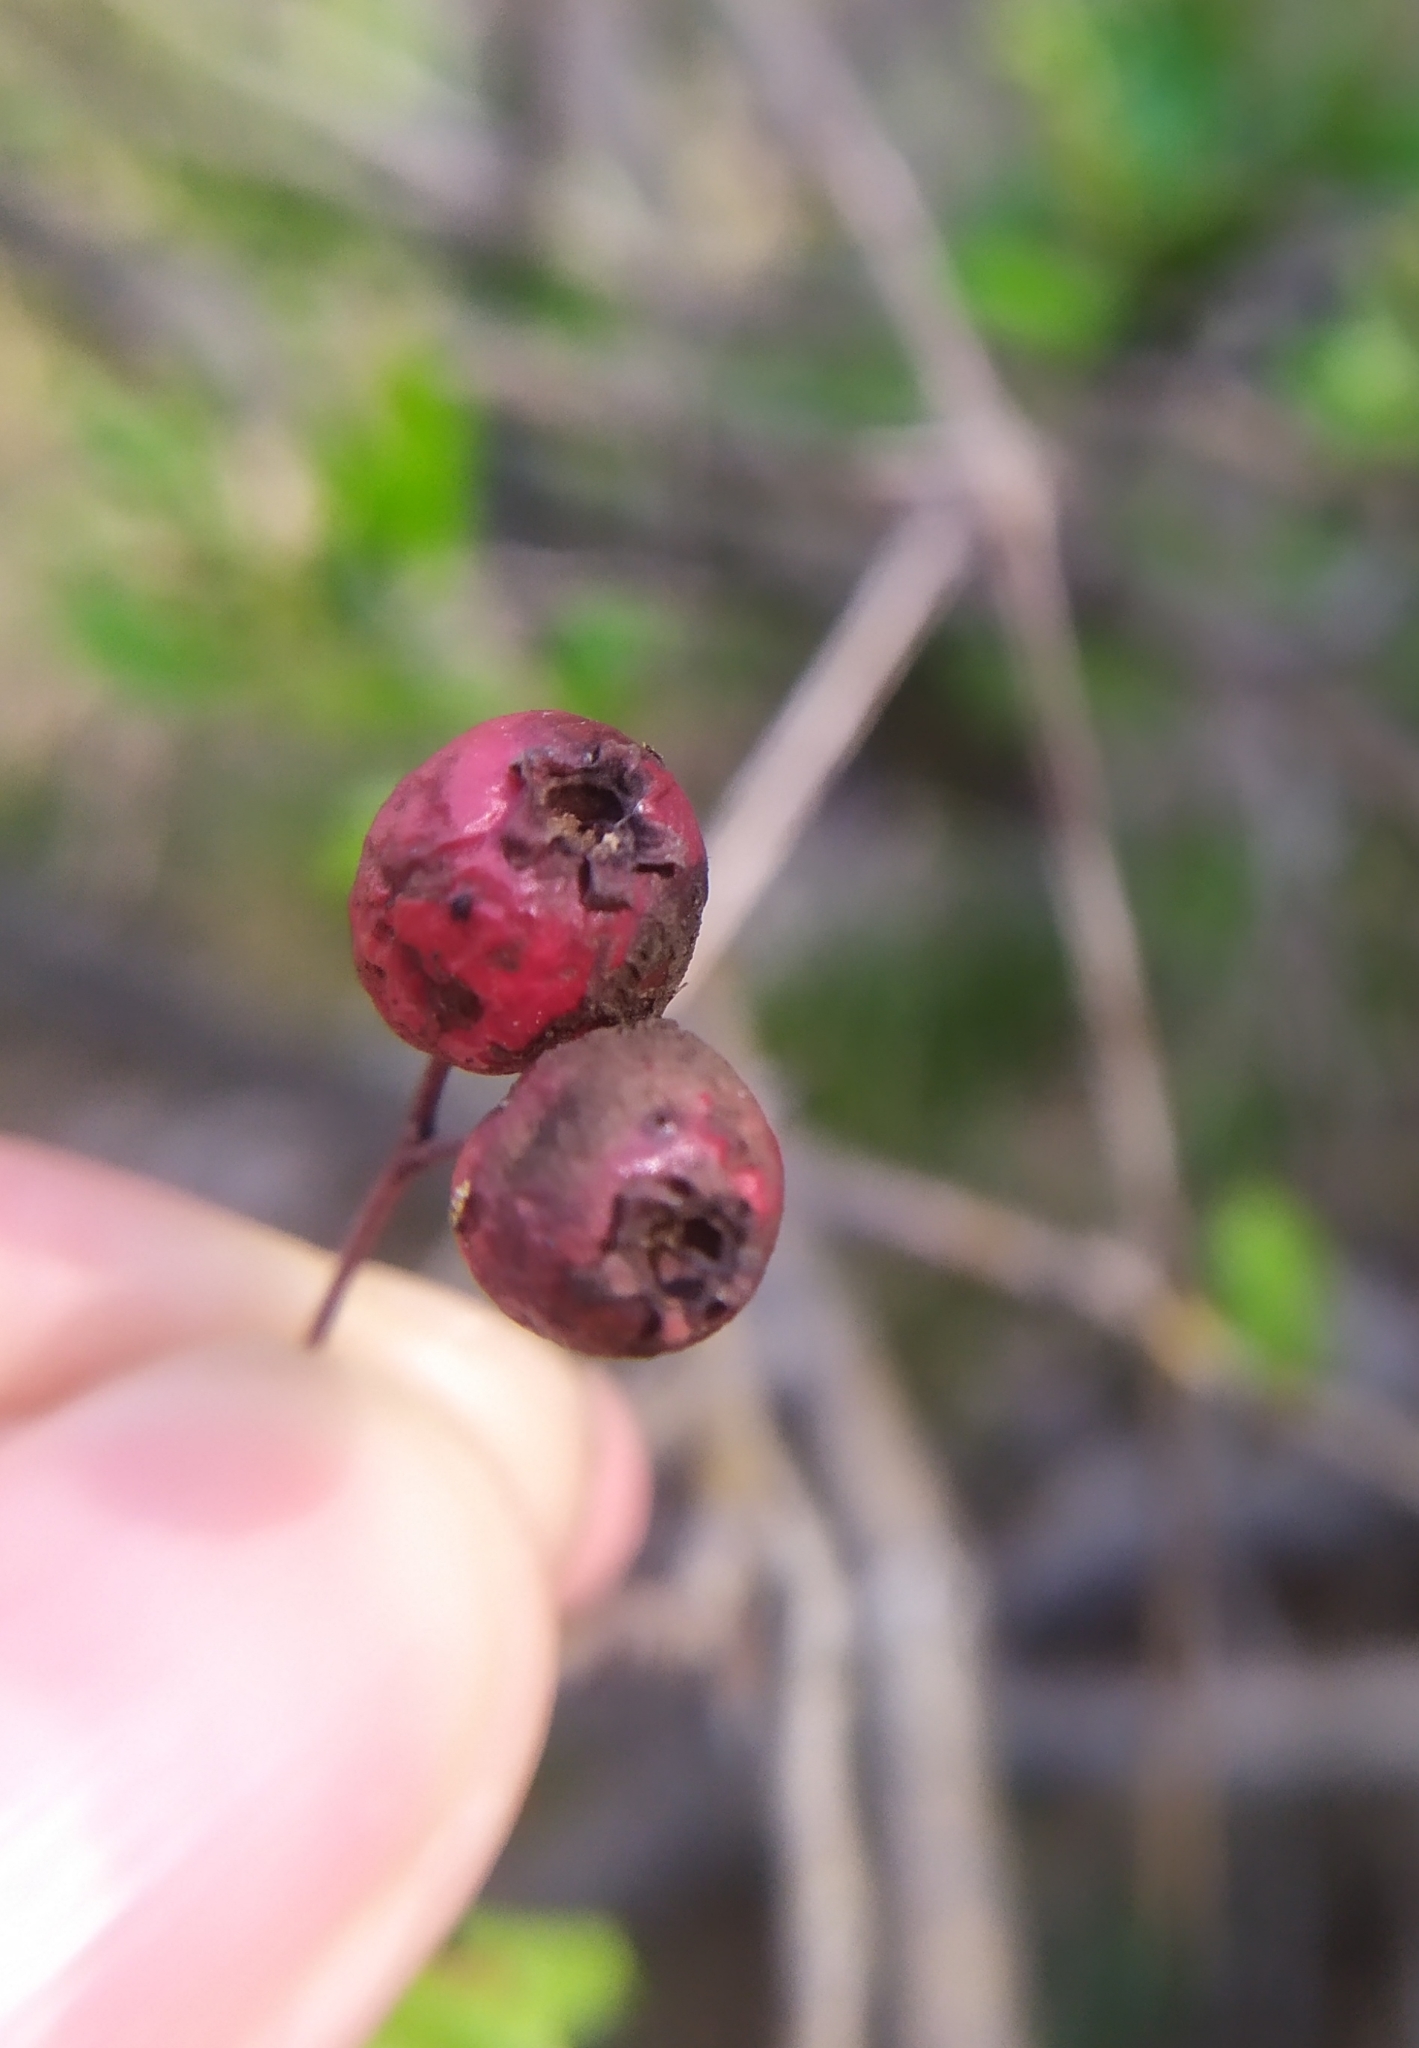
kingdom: Plantae
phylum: Tracheophyta
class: Magnoliopsida
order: Rosales
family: Rosaceae
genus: Crataegus
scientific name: Crataegus monogyna
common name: Hawthorn
